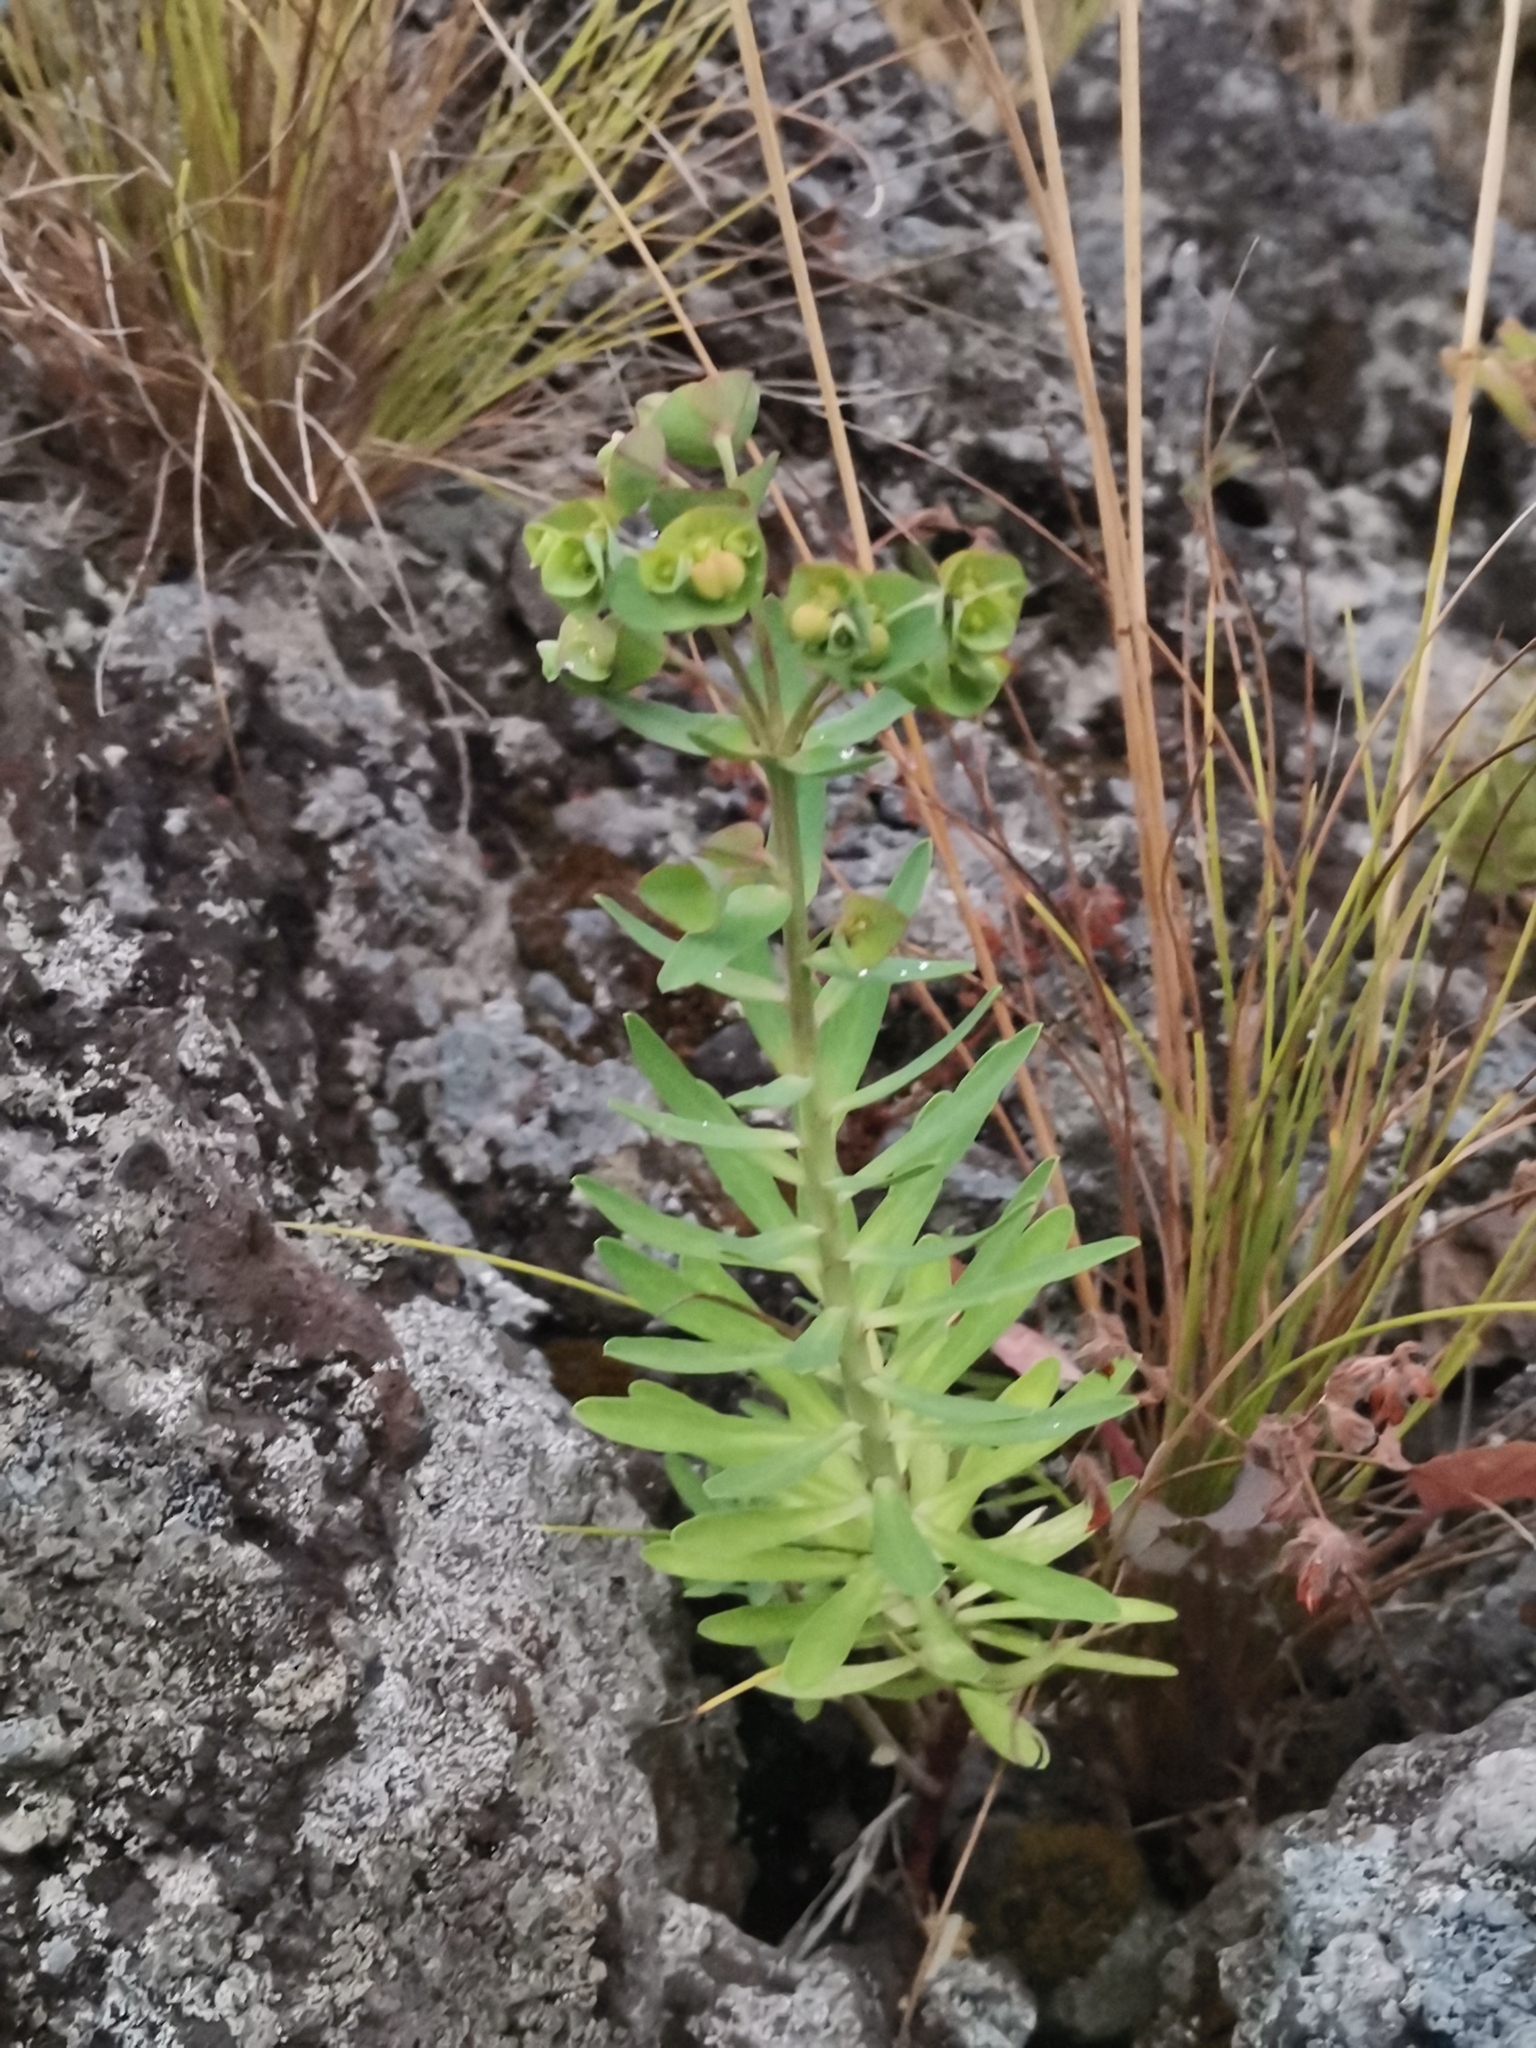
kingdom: Plantae
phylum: Tracheophyta
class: Magnoliopsida
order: Malpighiales
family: Euphorbiaceae
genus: Euphorbia
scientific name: Euphorbia azorica
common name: Erva-leitera
